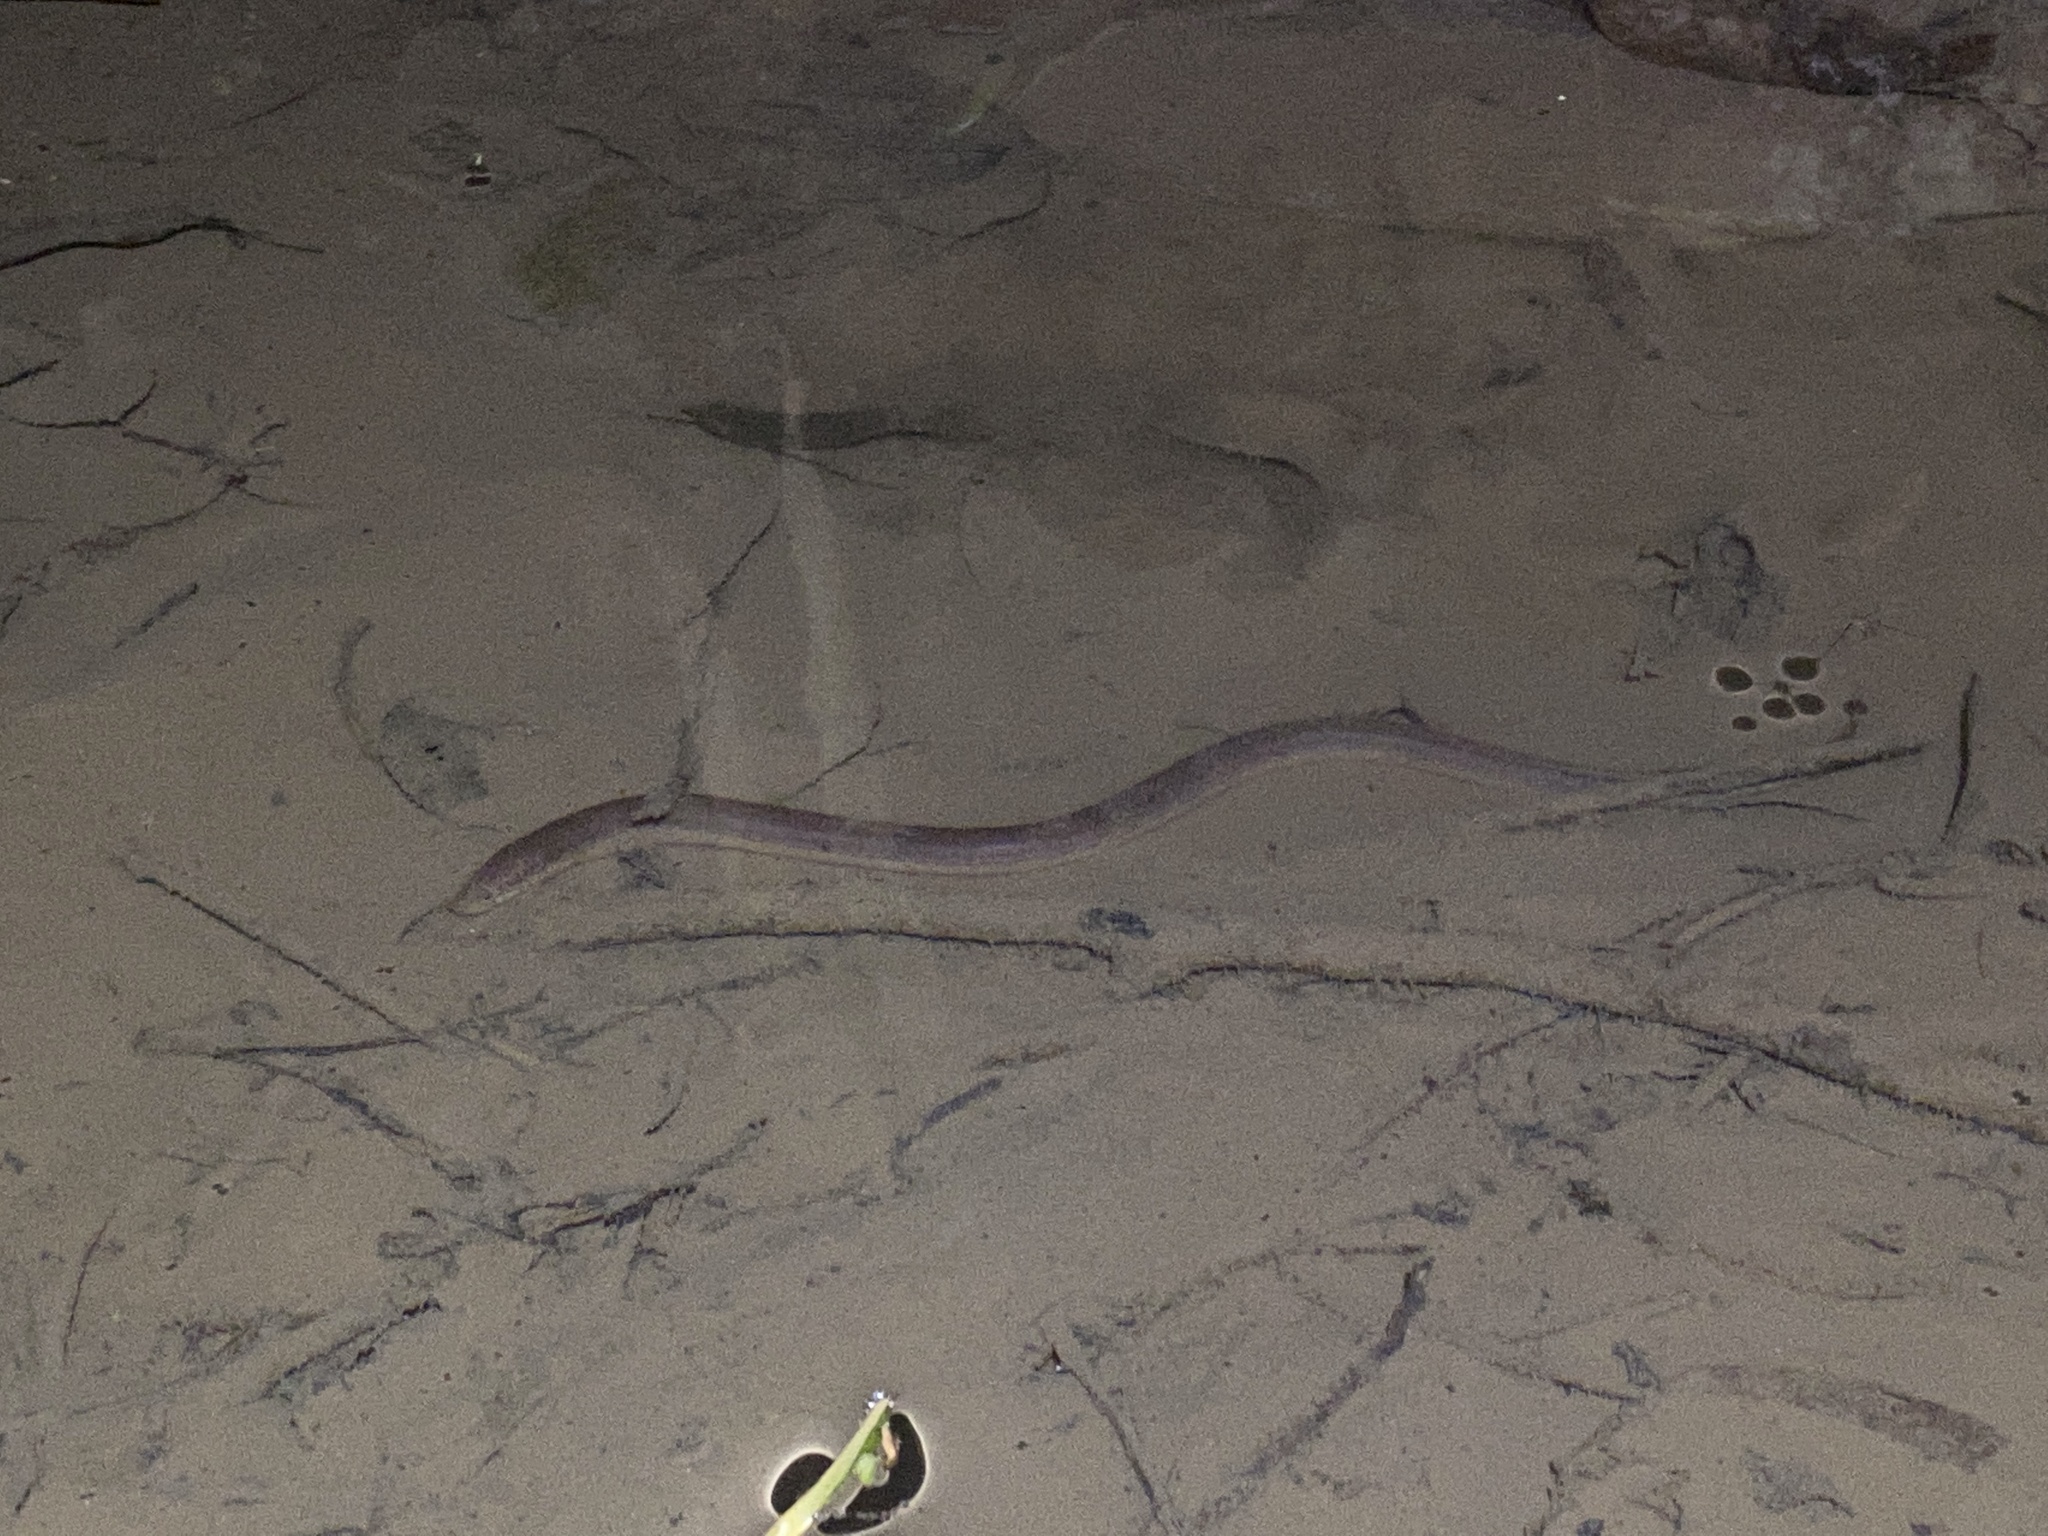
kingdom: Animalia
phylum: Chordata
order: Synbranchiformes
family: Synbranchidae
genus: Synbranchus
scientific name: Synbranchus marmoratus
